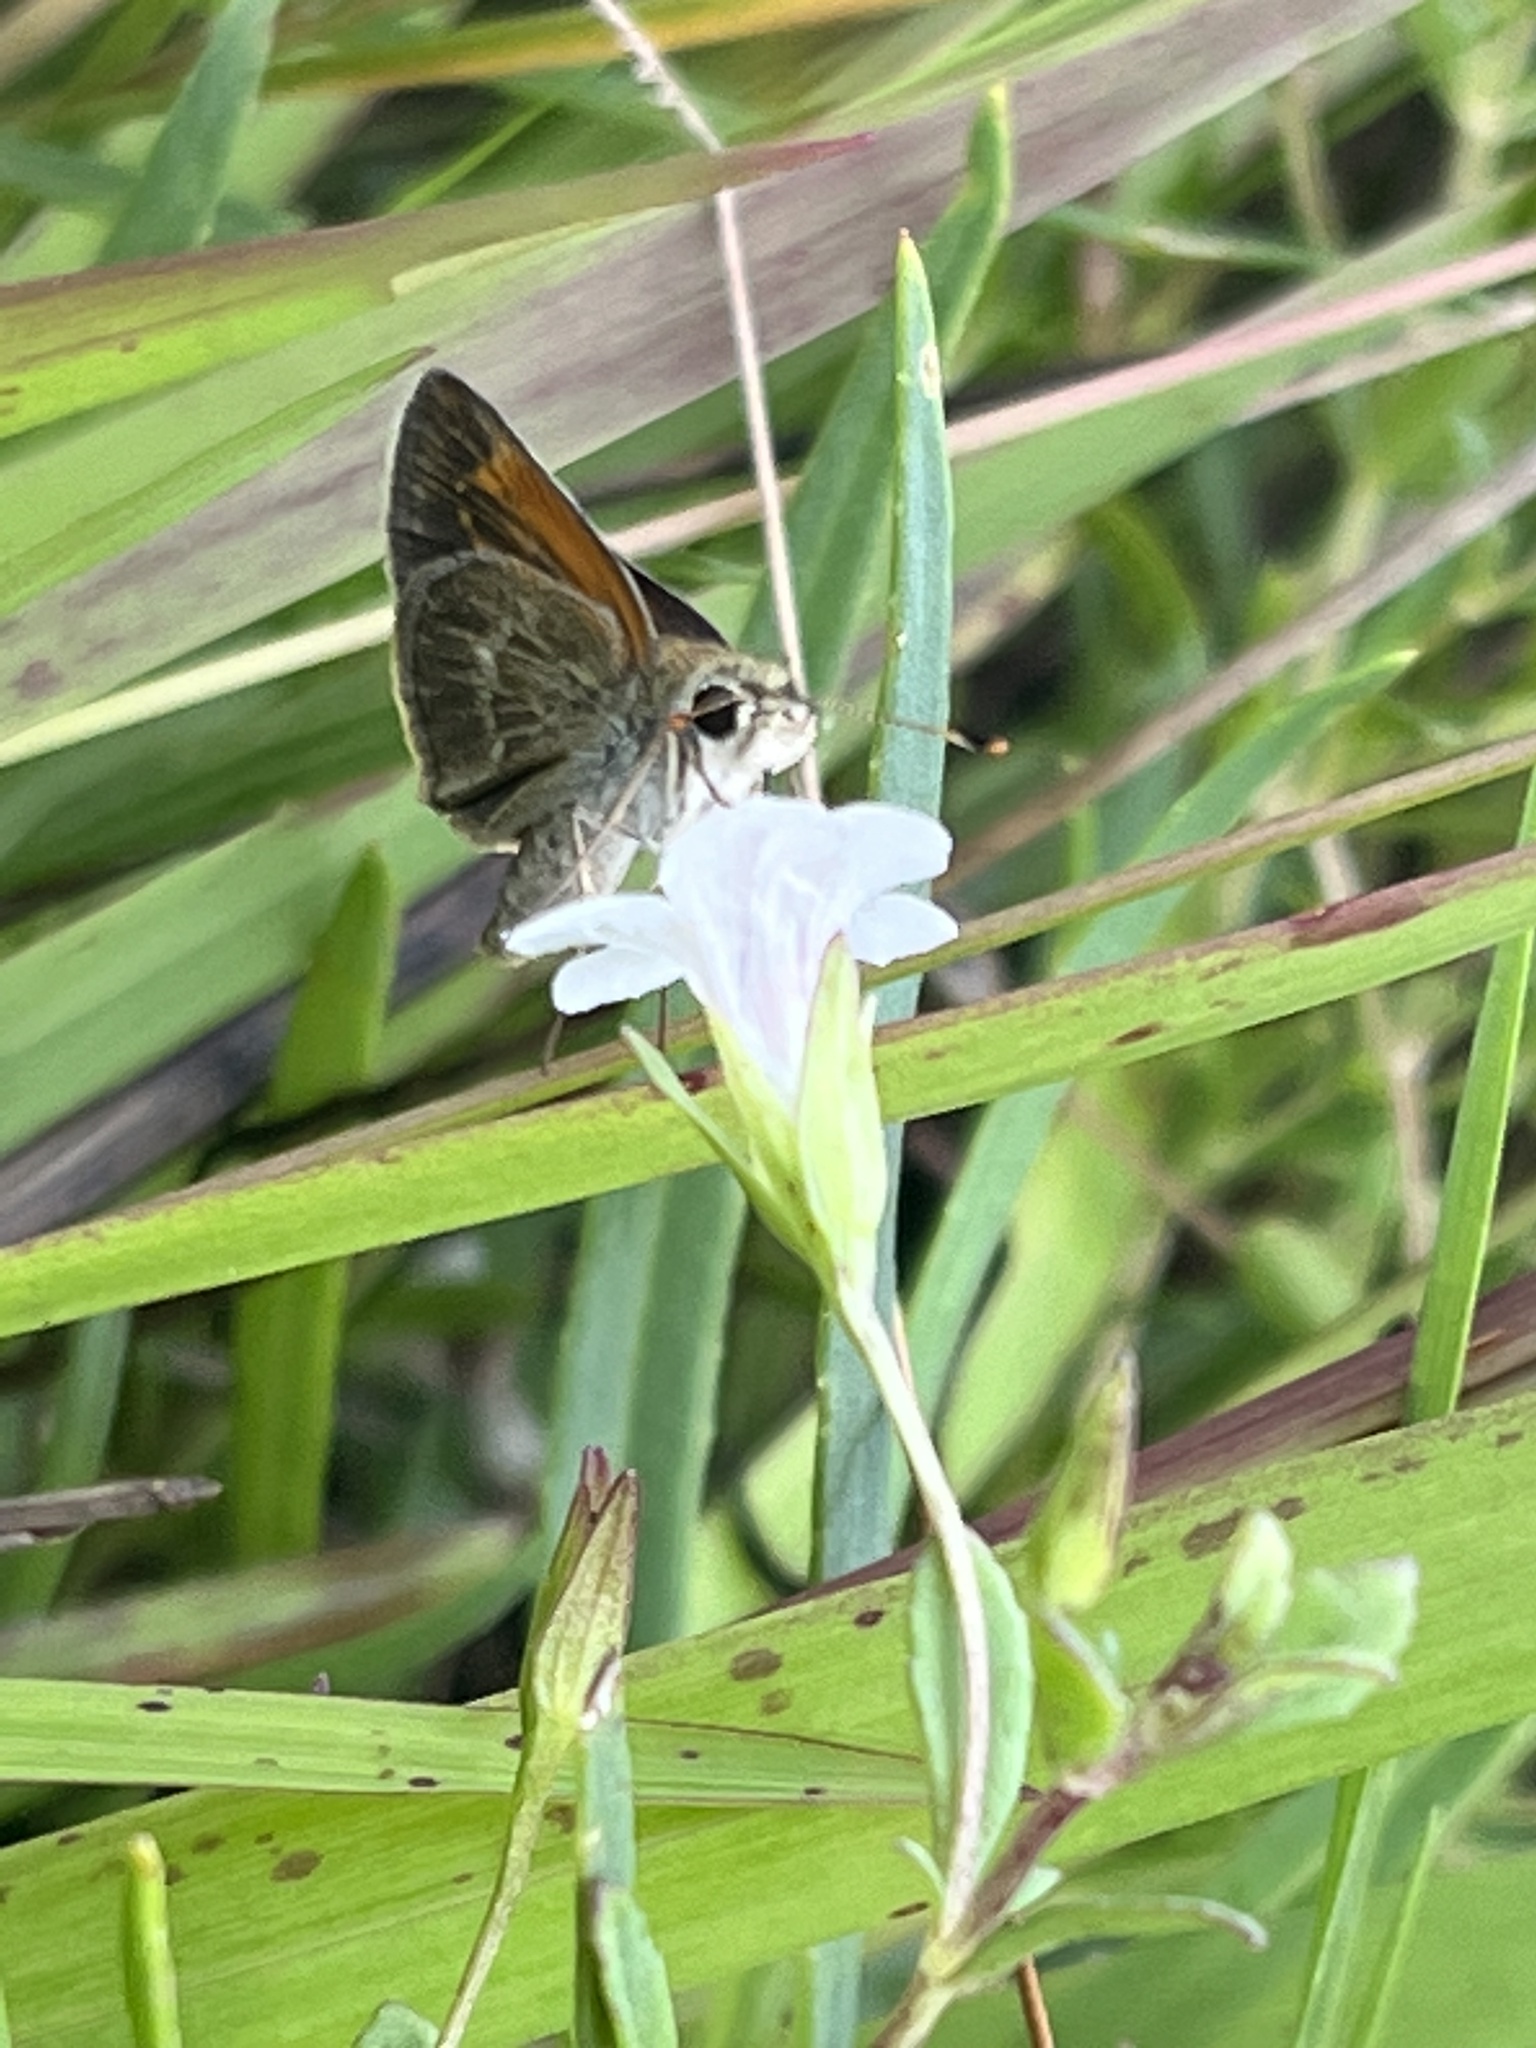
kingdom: Animalia
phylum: Arthropoda
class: Insecta
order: Lepidoptera
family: Hesperiidae
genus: Polites
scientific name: Polites baracoa
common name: Baracoa skipper
